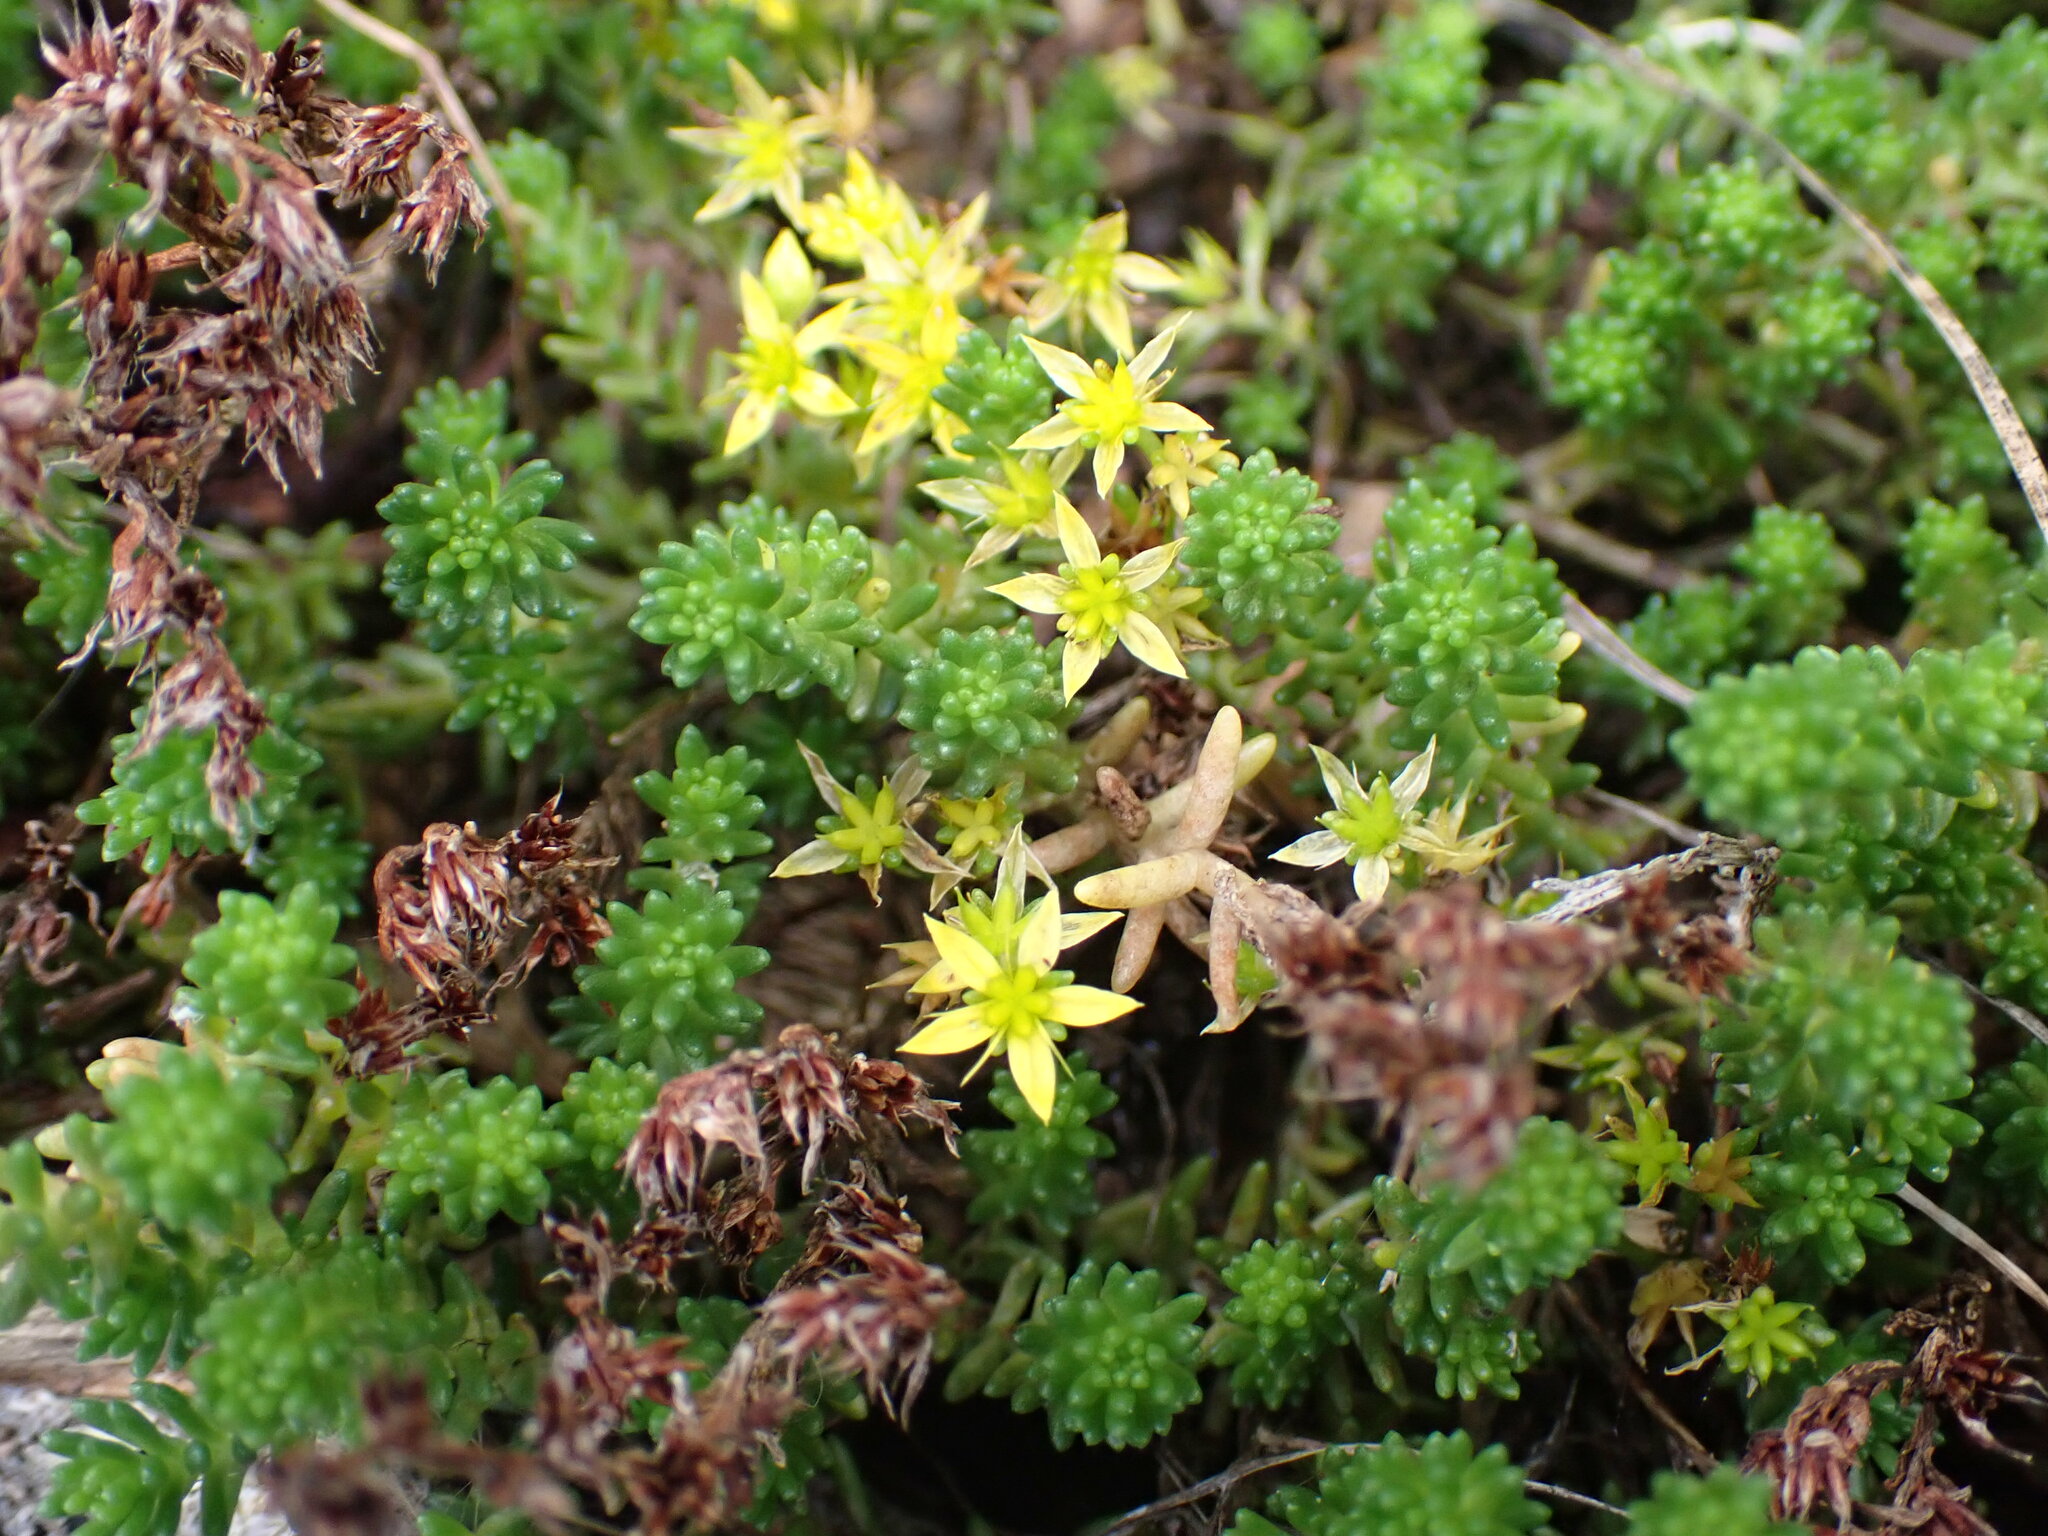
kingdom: Plantae
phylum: Tracheophyta
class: Magnoliopsida
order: Saxifragales
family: Crassulaceae
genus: Sedum
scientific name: Sedum sexangulare
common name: Tasteless stonecrop
